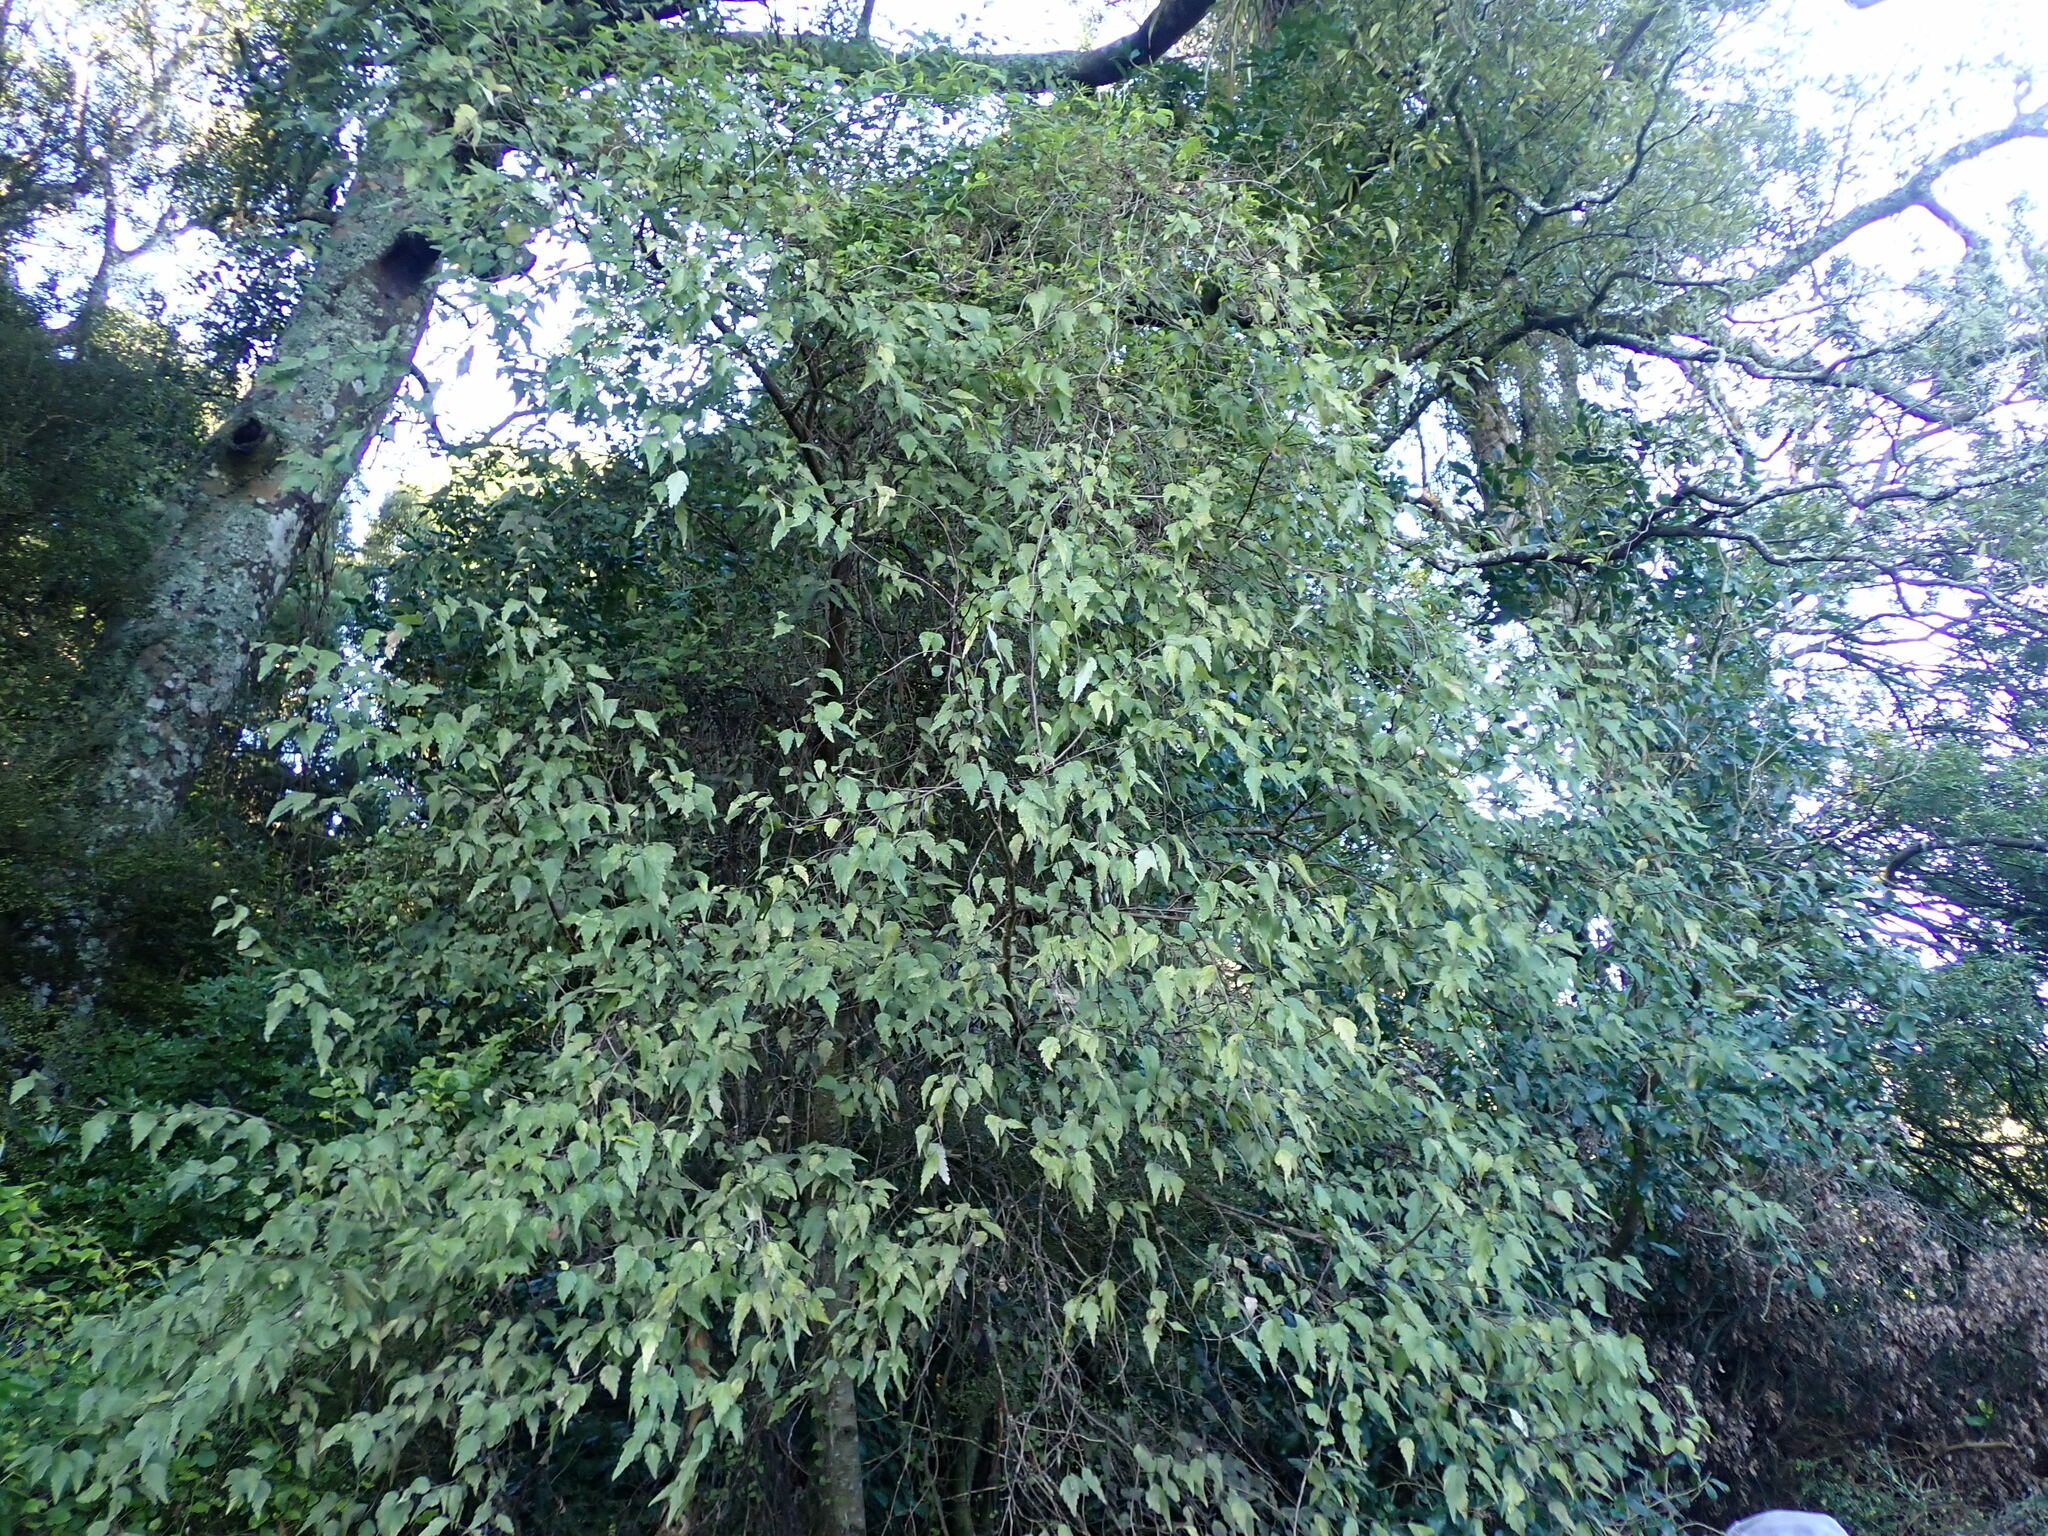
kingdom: Plantae
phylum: Tracheophyta
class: Magnoliopsida
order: Malvales
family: Malvaceae
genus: Plagianthus
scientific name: Plagianthus regius
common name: Manatu
